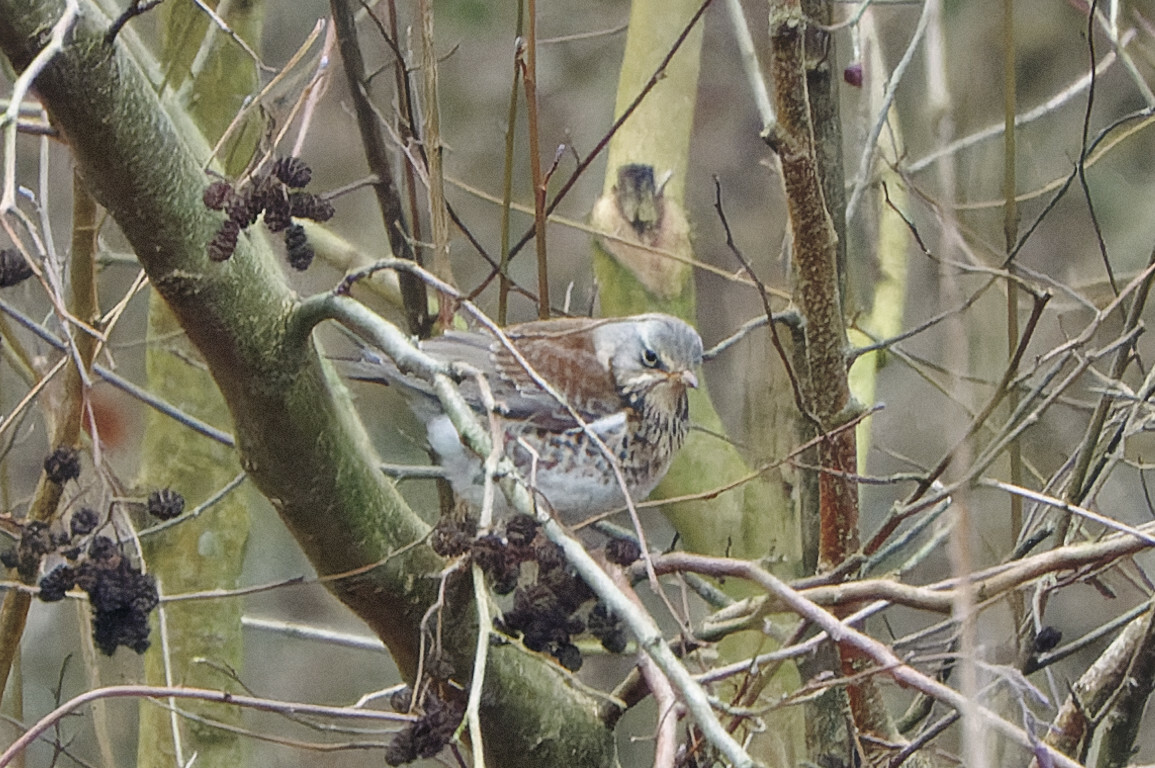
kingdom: Animalia
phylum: Chordata
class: Aves
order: Passeriformes
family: Turdidae
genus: Turdus
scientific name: Turdus pilaris
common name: Fieldfare
